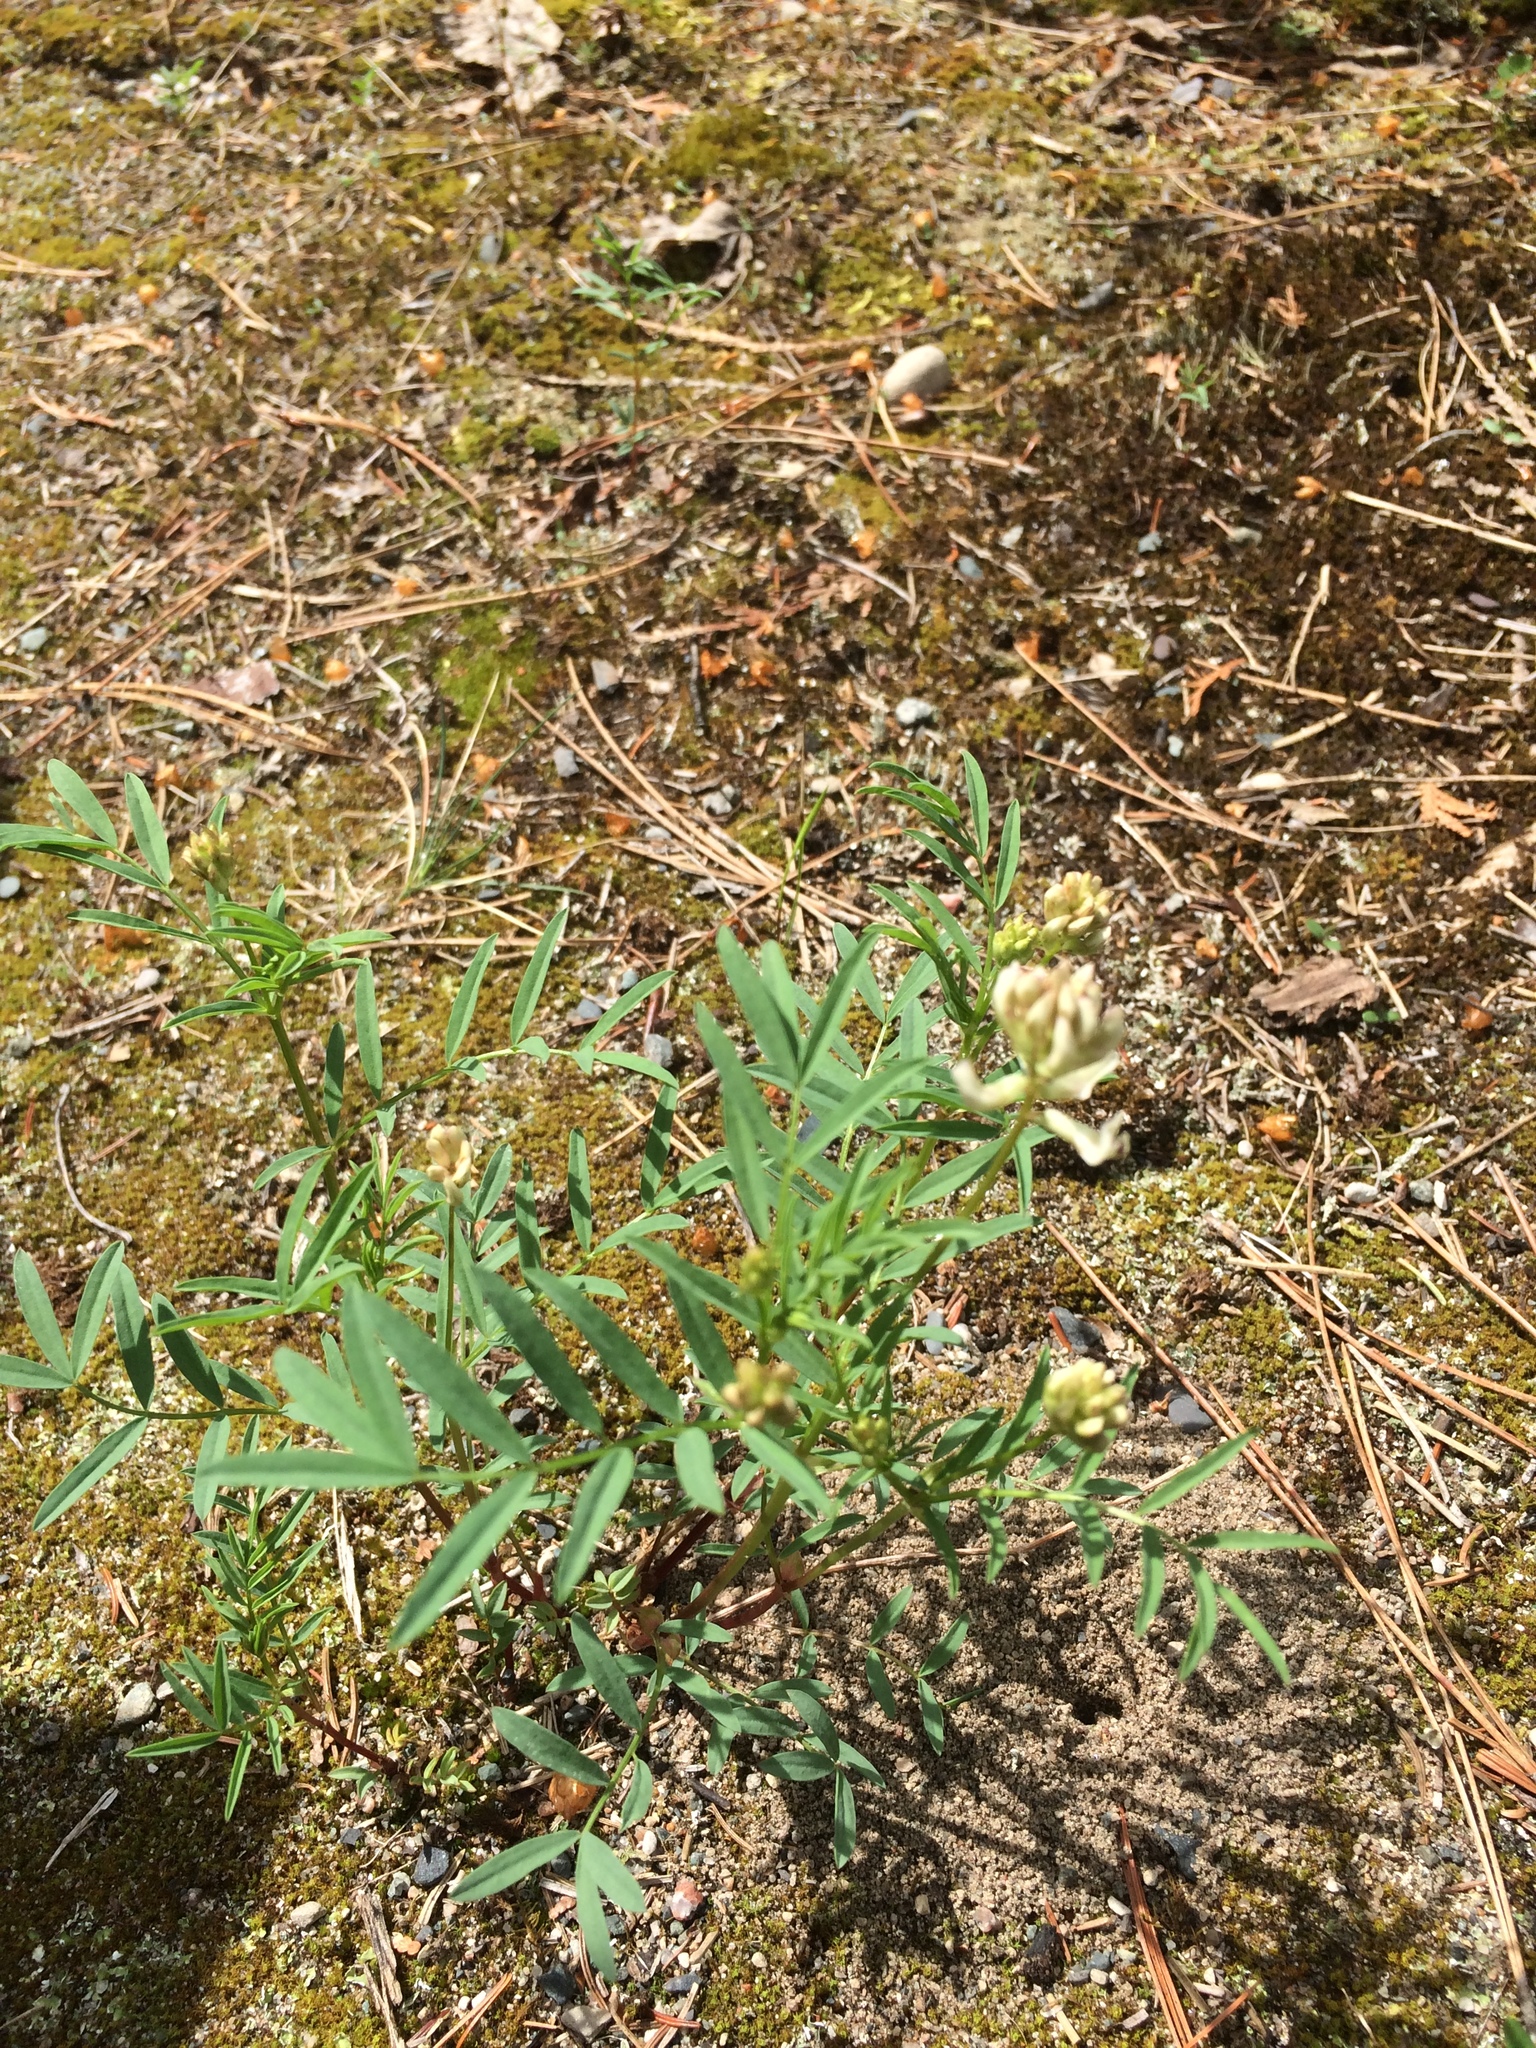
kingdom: Plantae
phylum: Tracheophyta
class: Magnoliopsida
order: Fabales
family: Fabaceae
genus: Astragalus
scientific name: Astragalus aboriginorum
